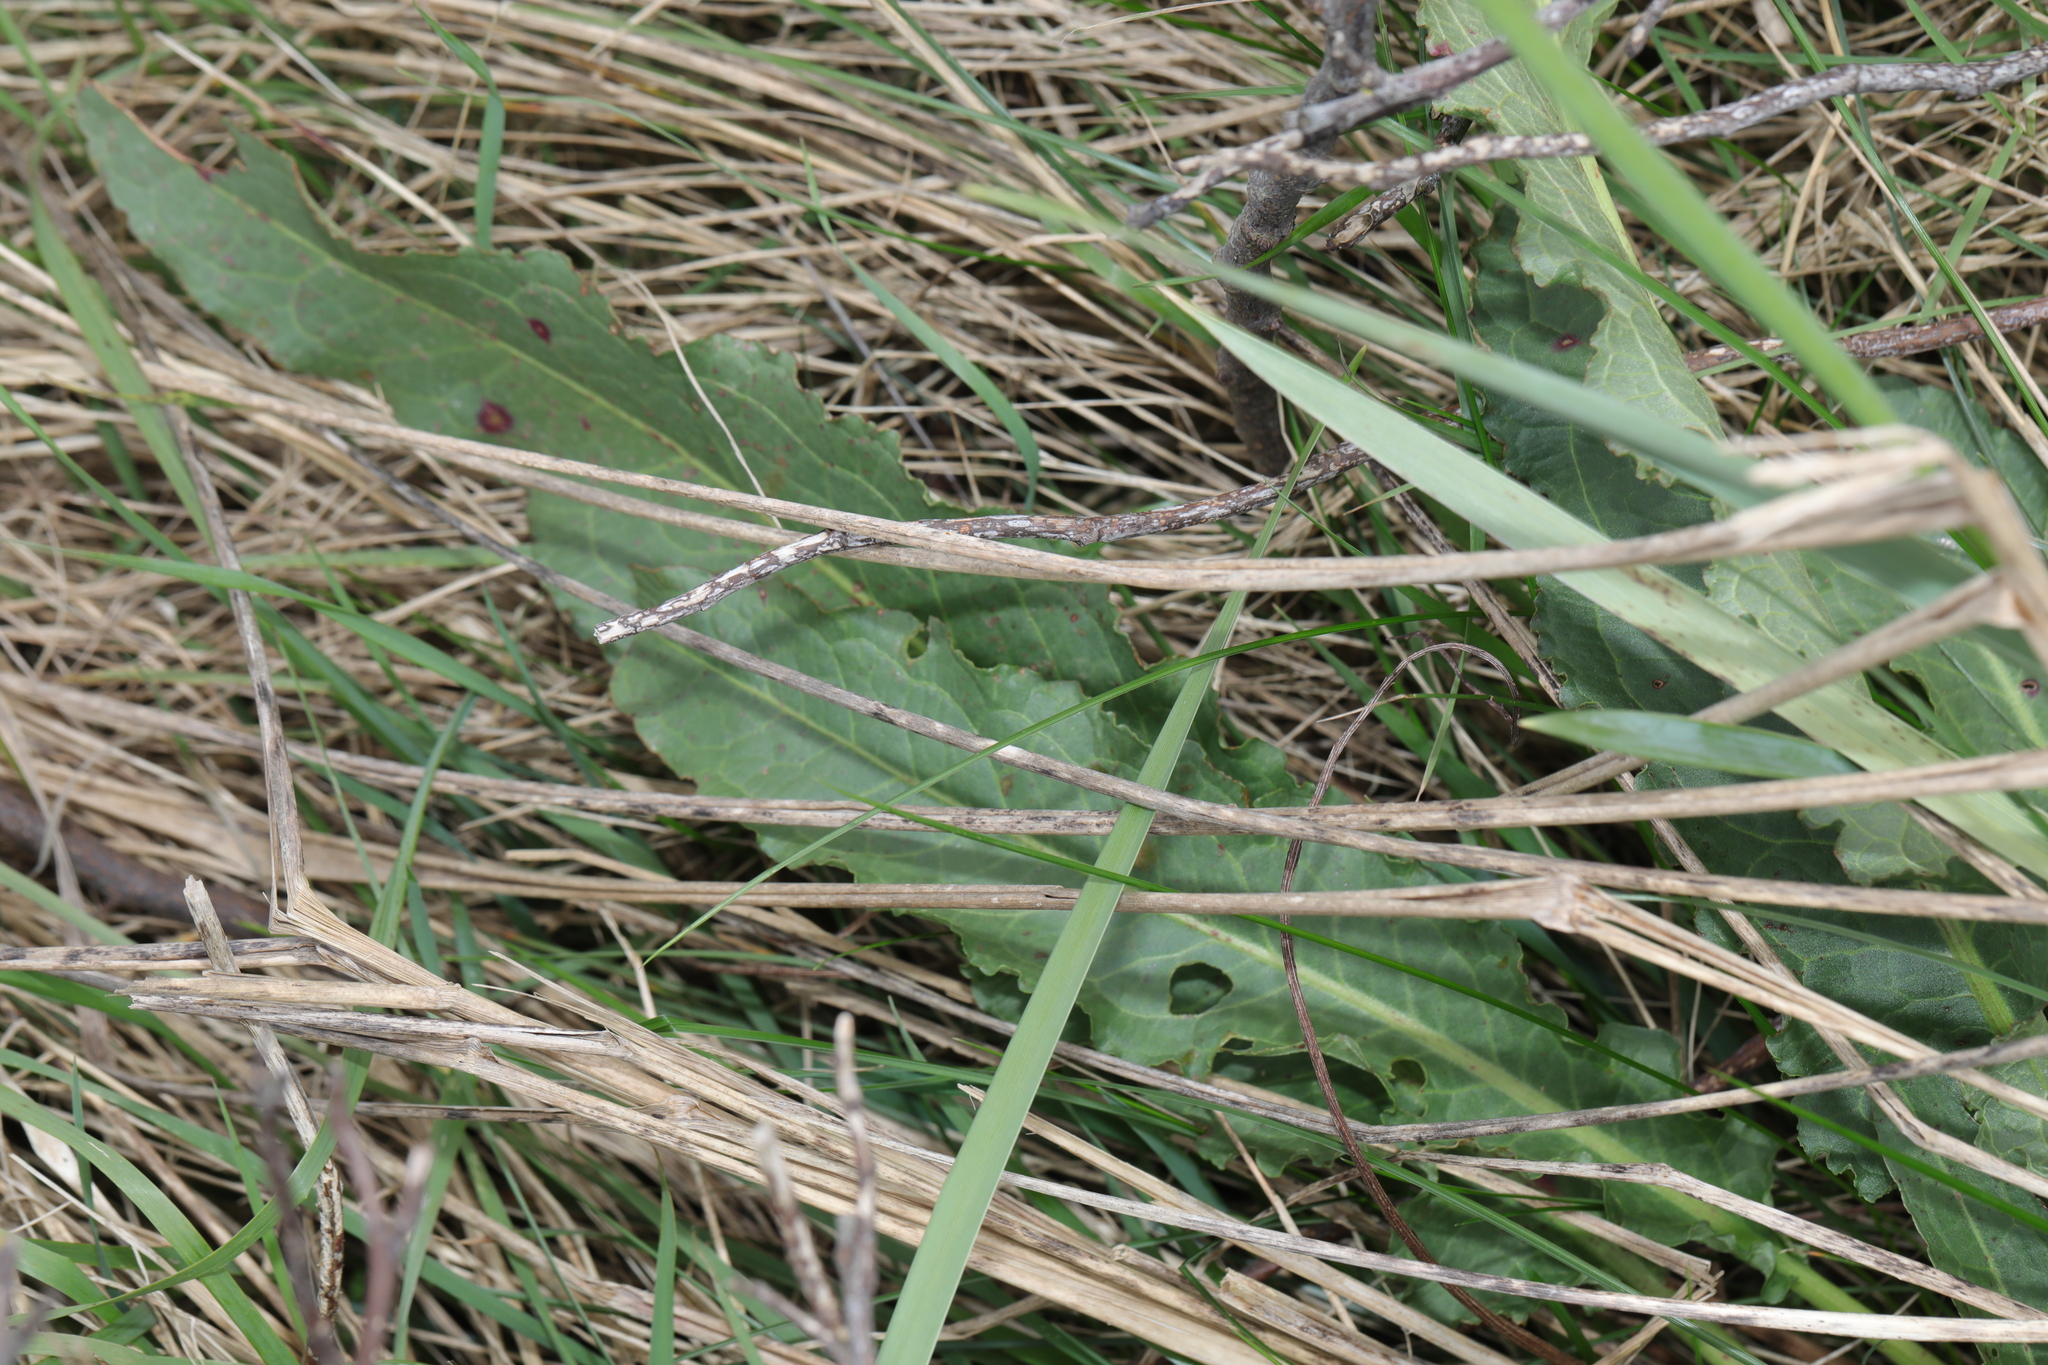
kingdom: Plantae
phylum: Tracheophyta
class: Magnoliopsida
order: Caryophyllales
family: Polygonaceae
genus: Rumex
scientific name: Rumex crispus
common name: Curled dock
